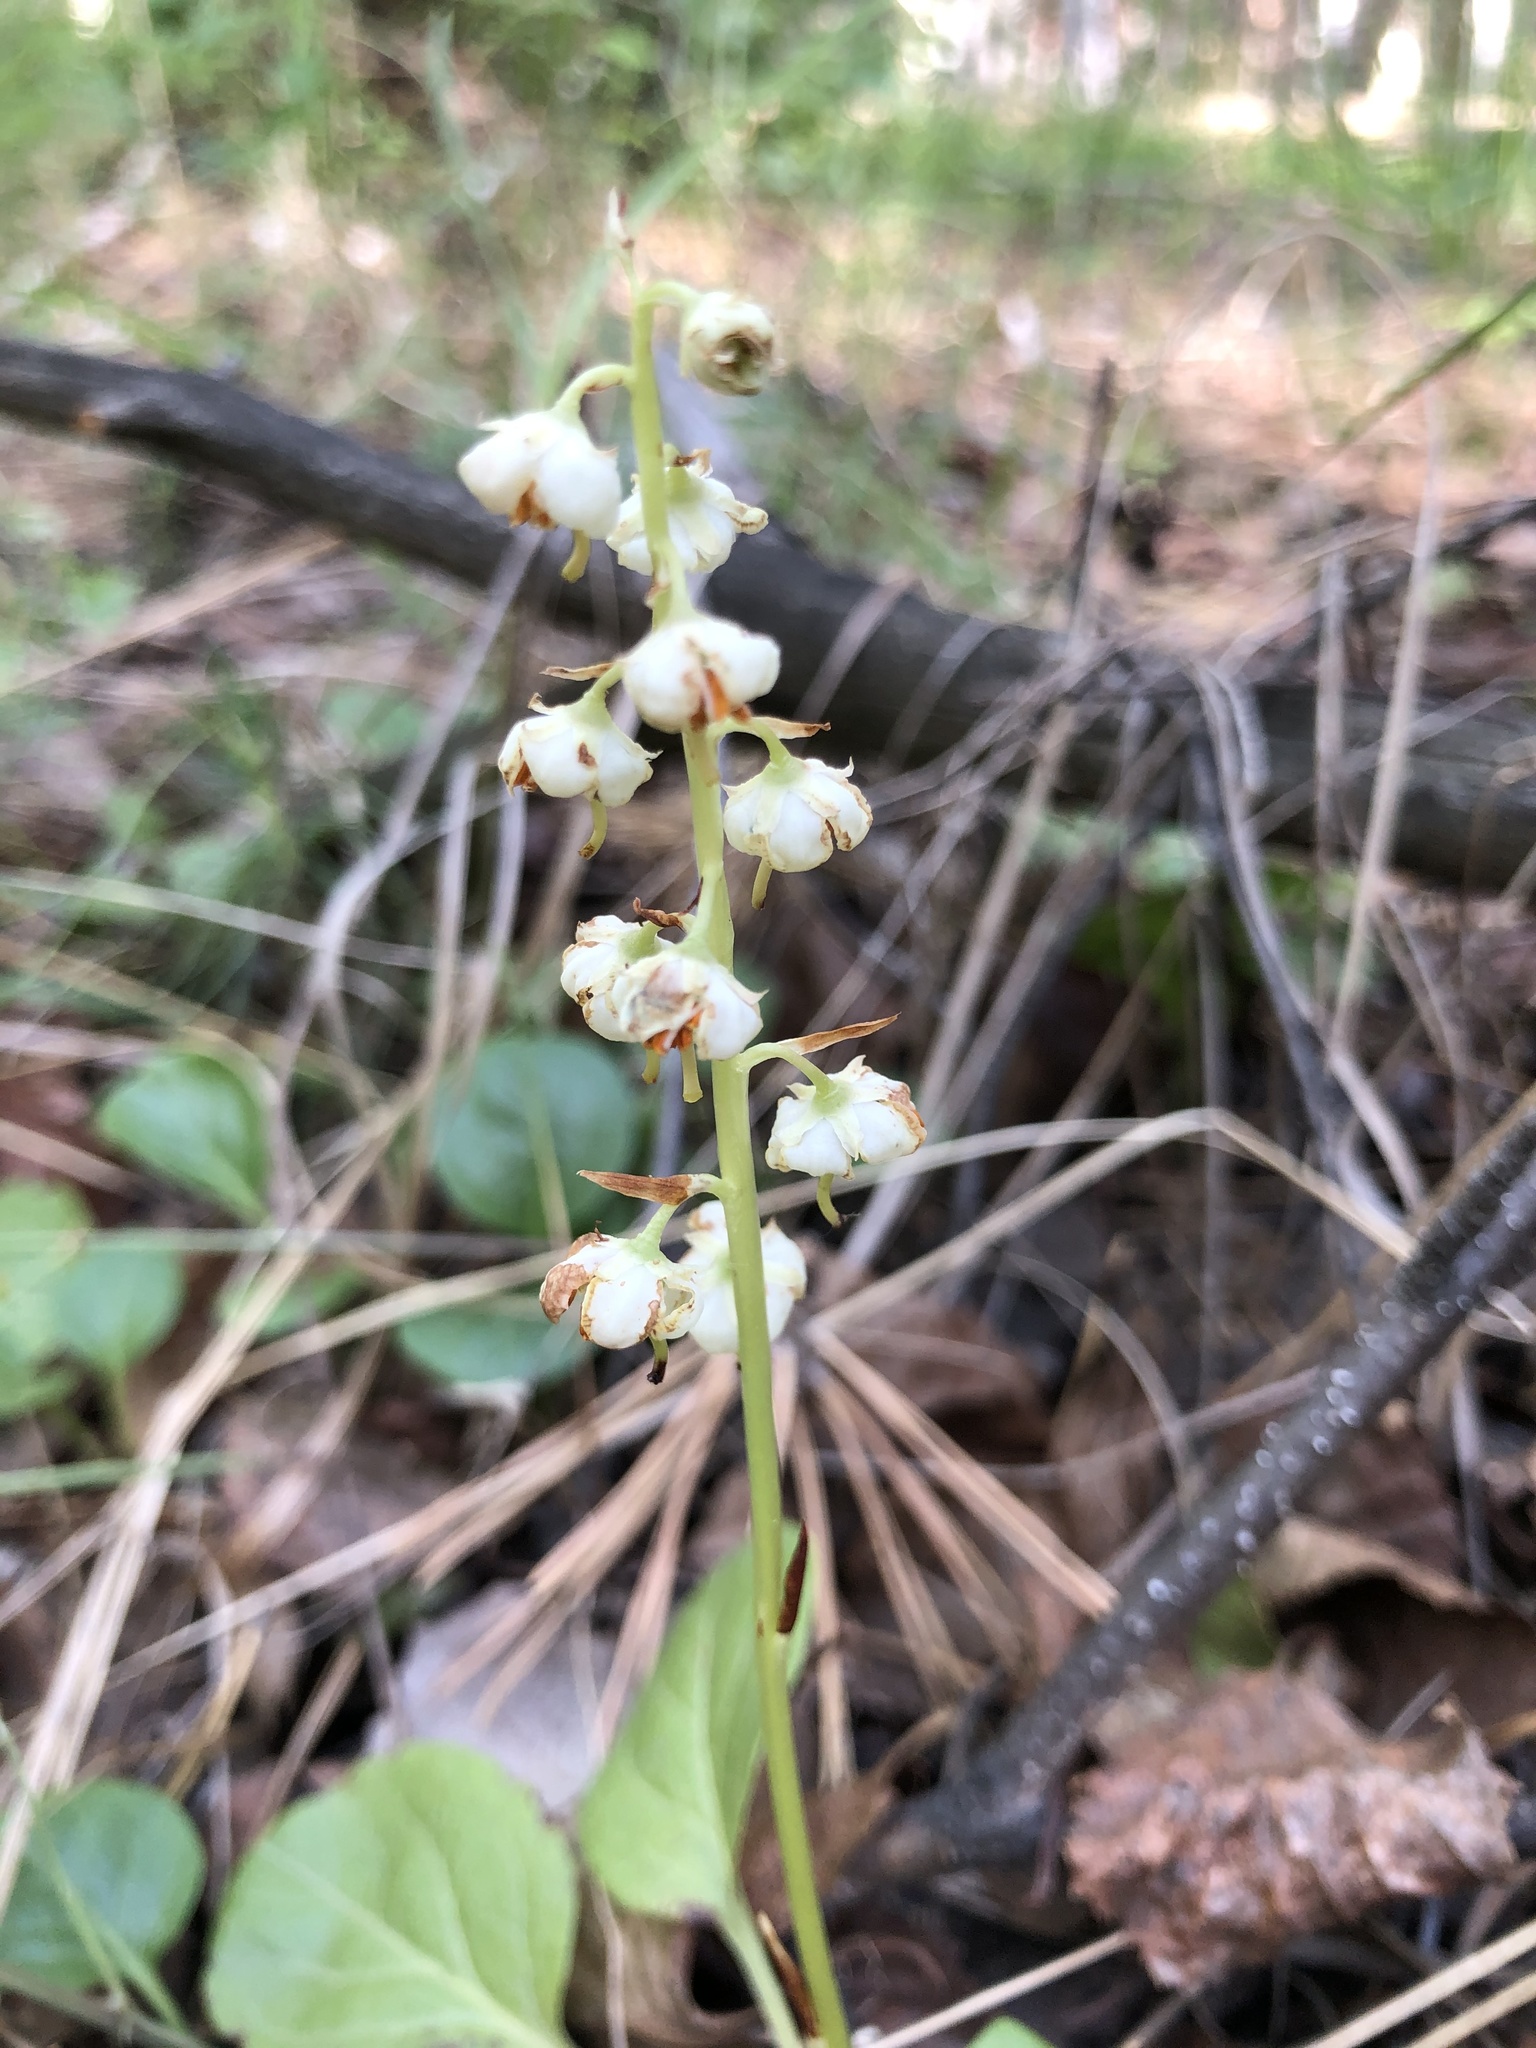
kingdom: Plantae
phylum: Tracheophyta
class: Magnoliopsida
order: Ericales
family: Ericaceae
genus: Pyrola
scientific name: Pyrola rotundifolia
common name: Round-leaved wintergreen
